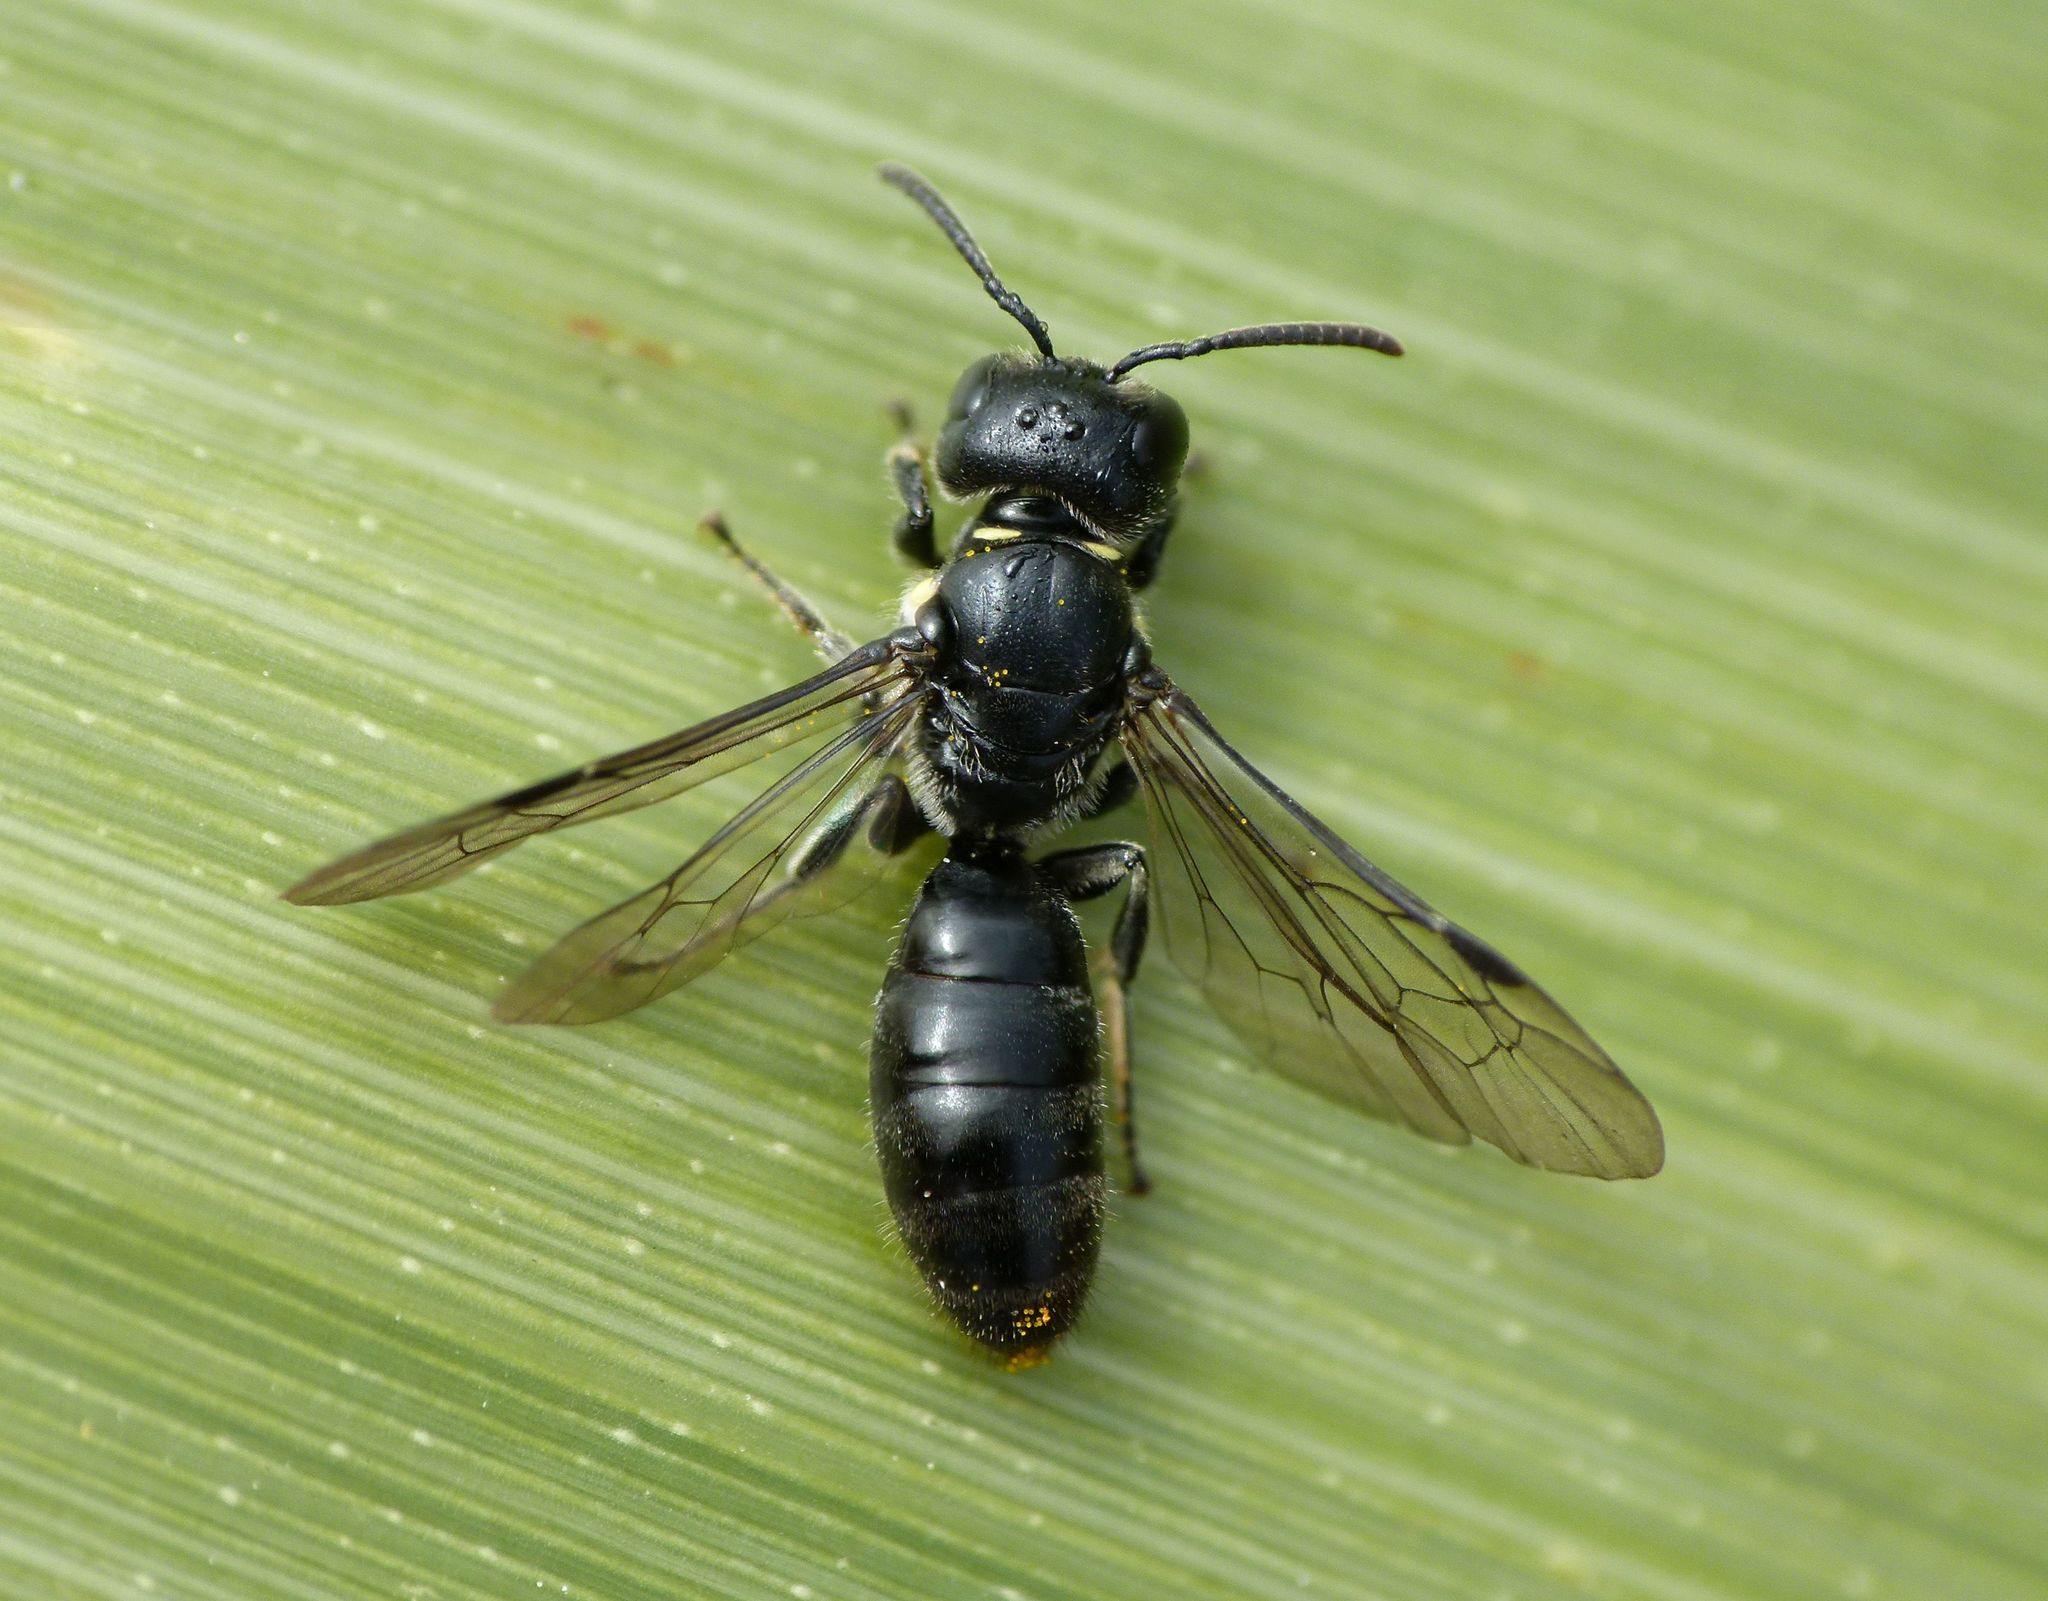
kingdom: Animalia
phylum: Arthropoda
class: Insecta
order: Hymenoptera
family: Colletidae
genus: Hylaeus
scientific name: Hylaeus relegatus
